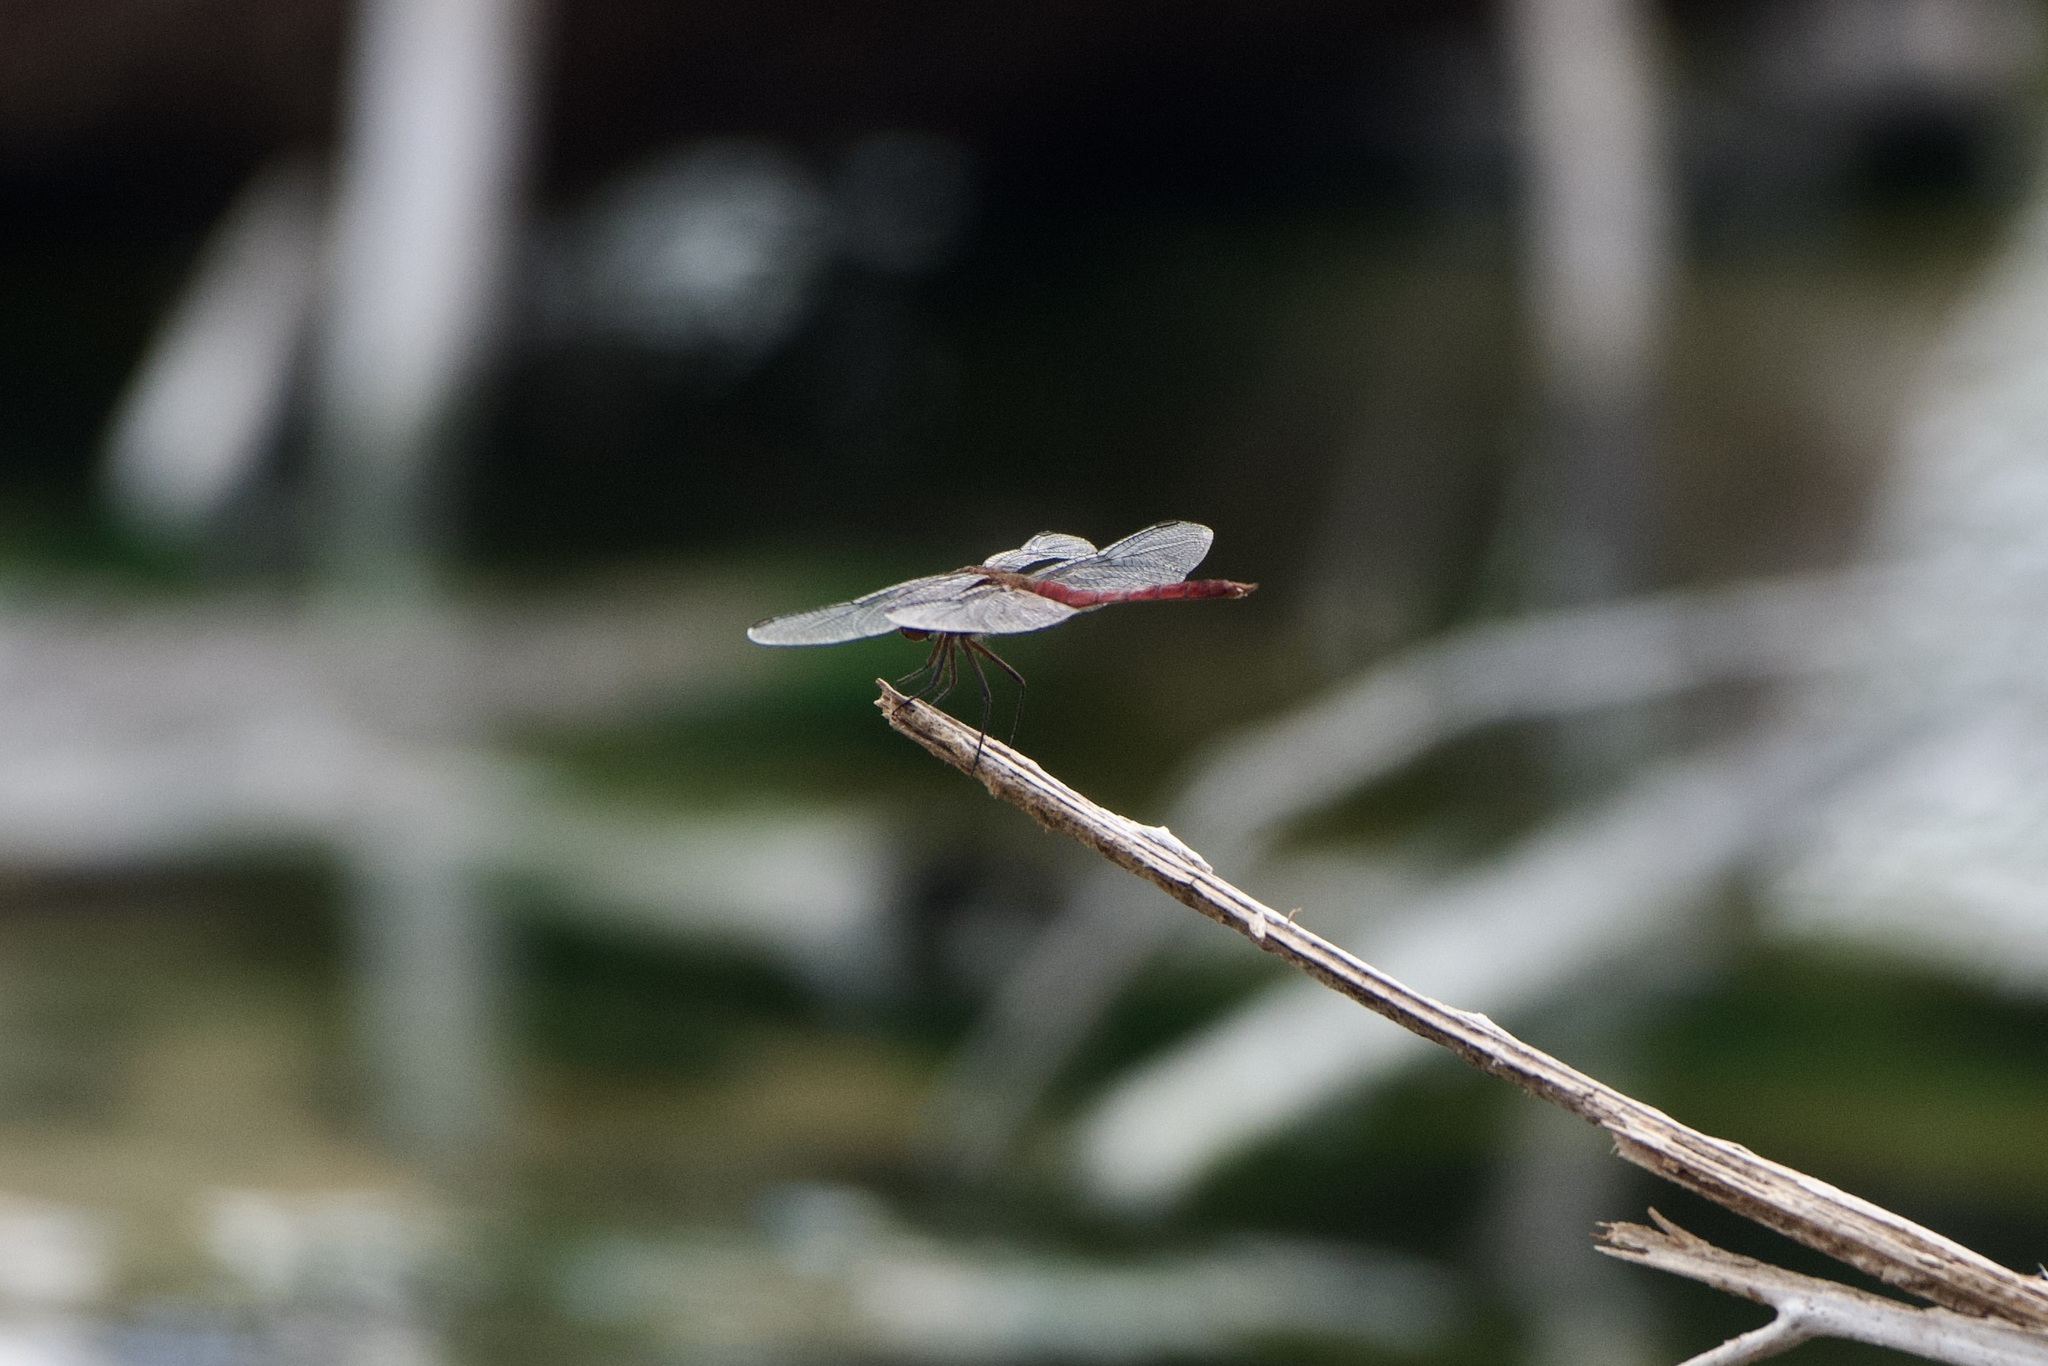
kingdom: Animalia
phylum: Arthropoda
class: Insecta
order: Odonata
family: Libellulidae
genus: Brachymesia
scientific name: Brachymesia furcata
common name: Red-taled pennant
